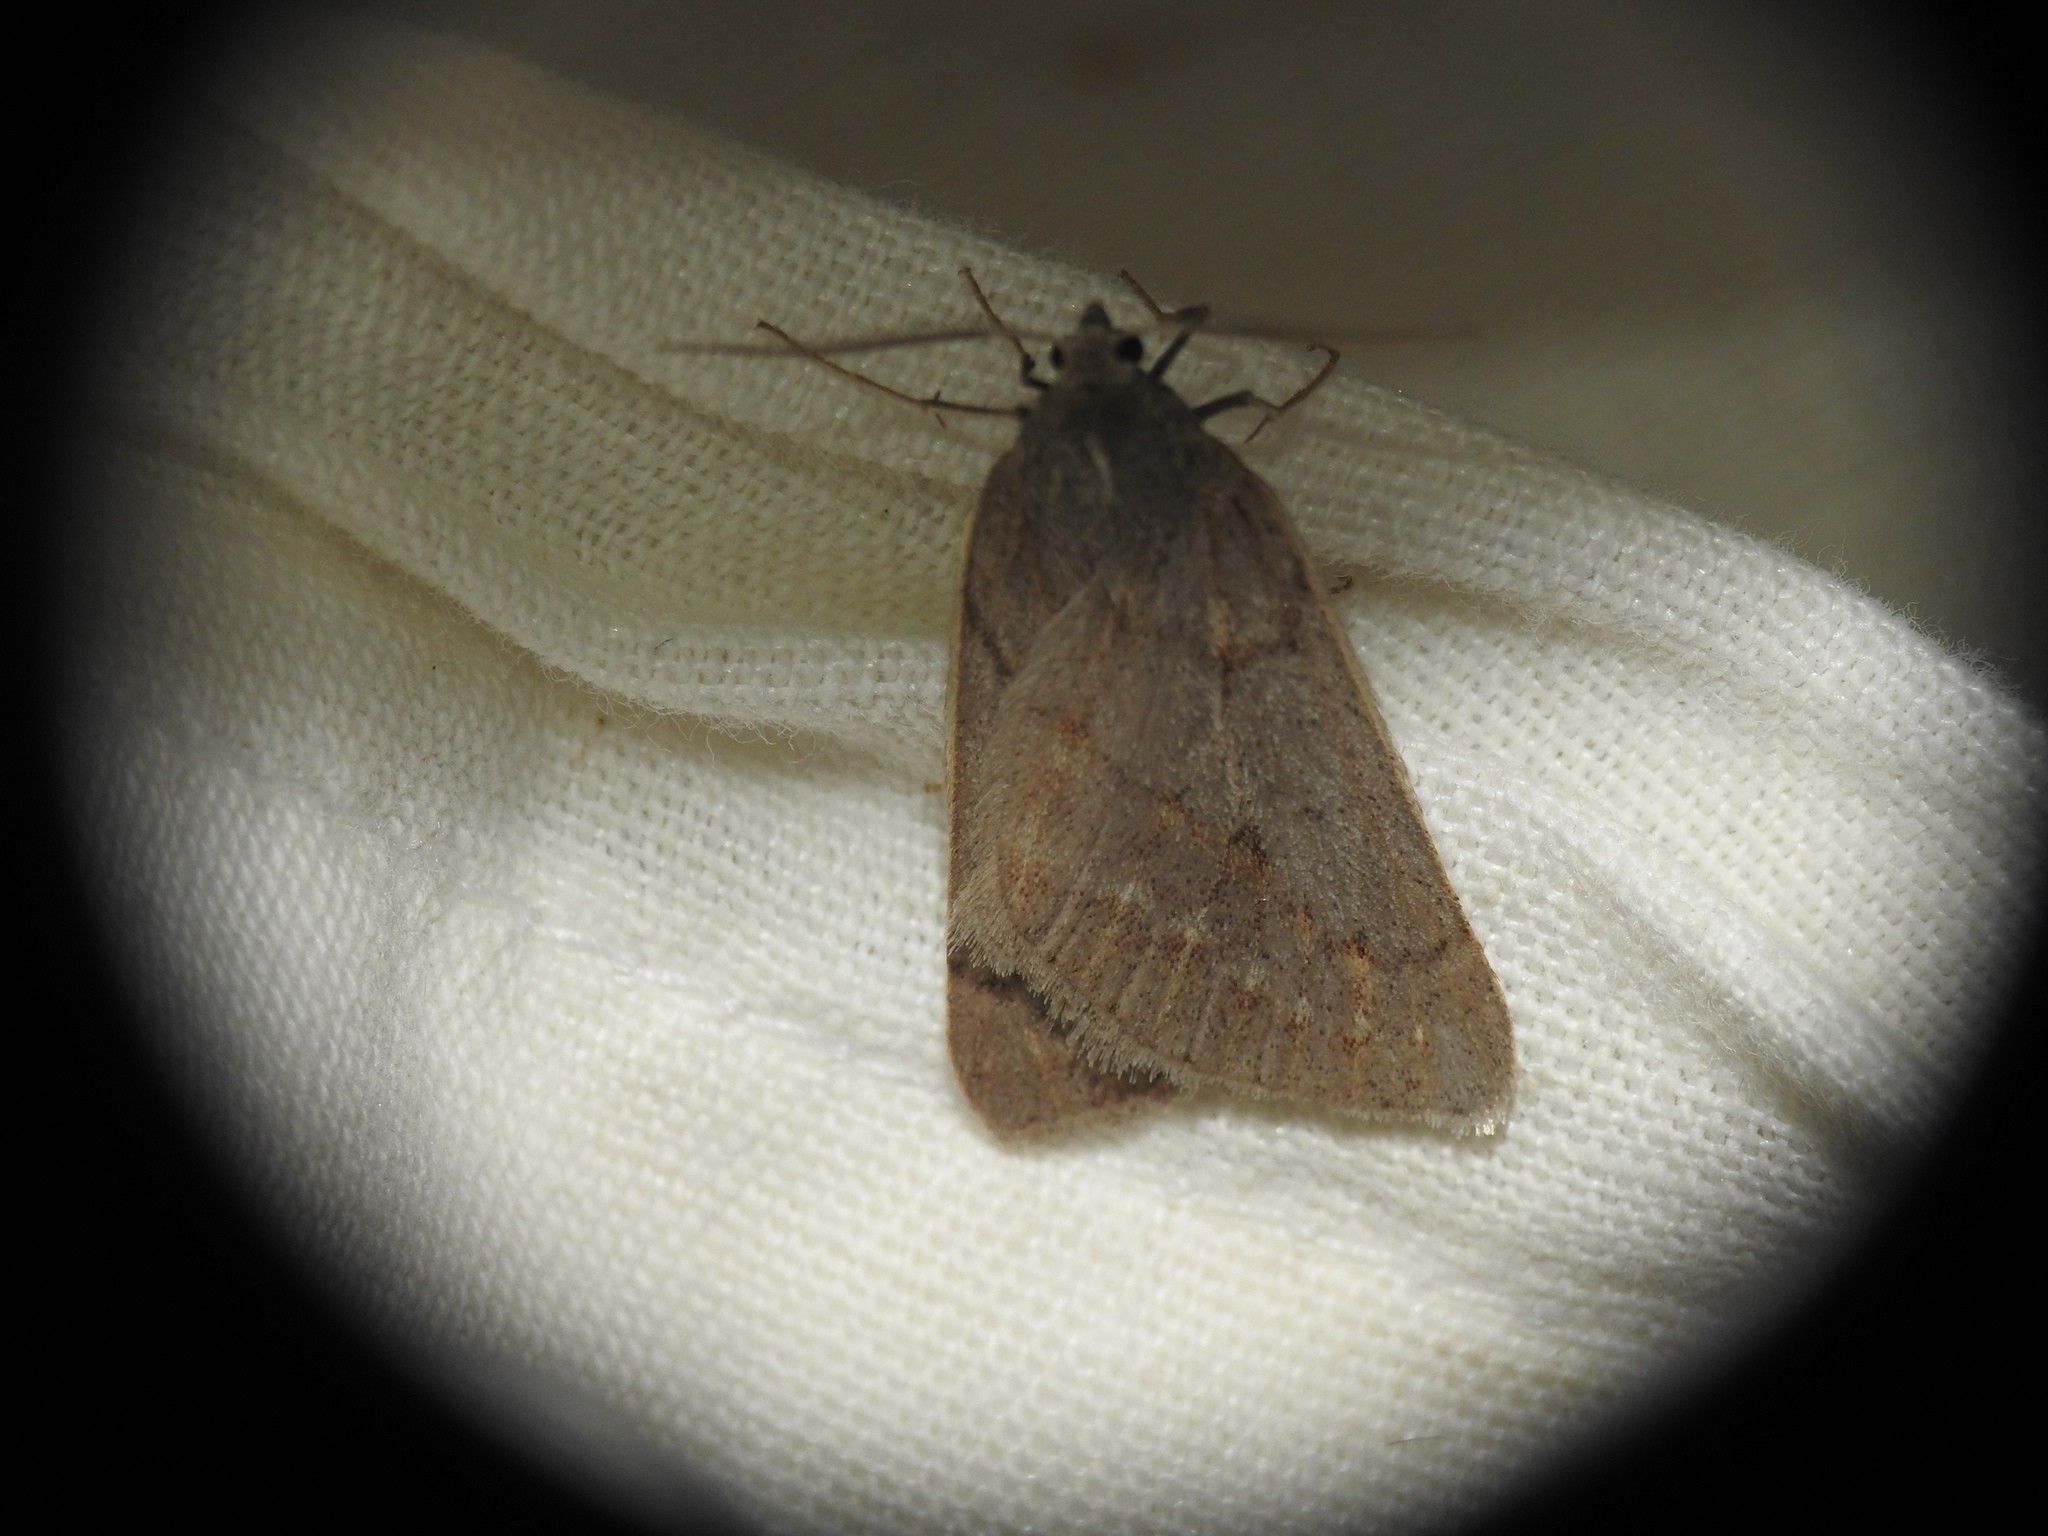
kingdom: Animalia
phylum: Arthropoda
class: Insecta
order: Lepidoptera
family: Geometridae
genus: Chemerina
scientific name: Chemerina caliginearia
